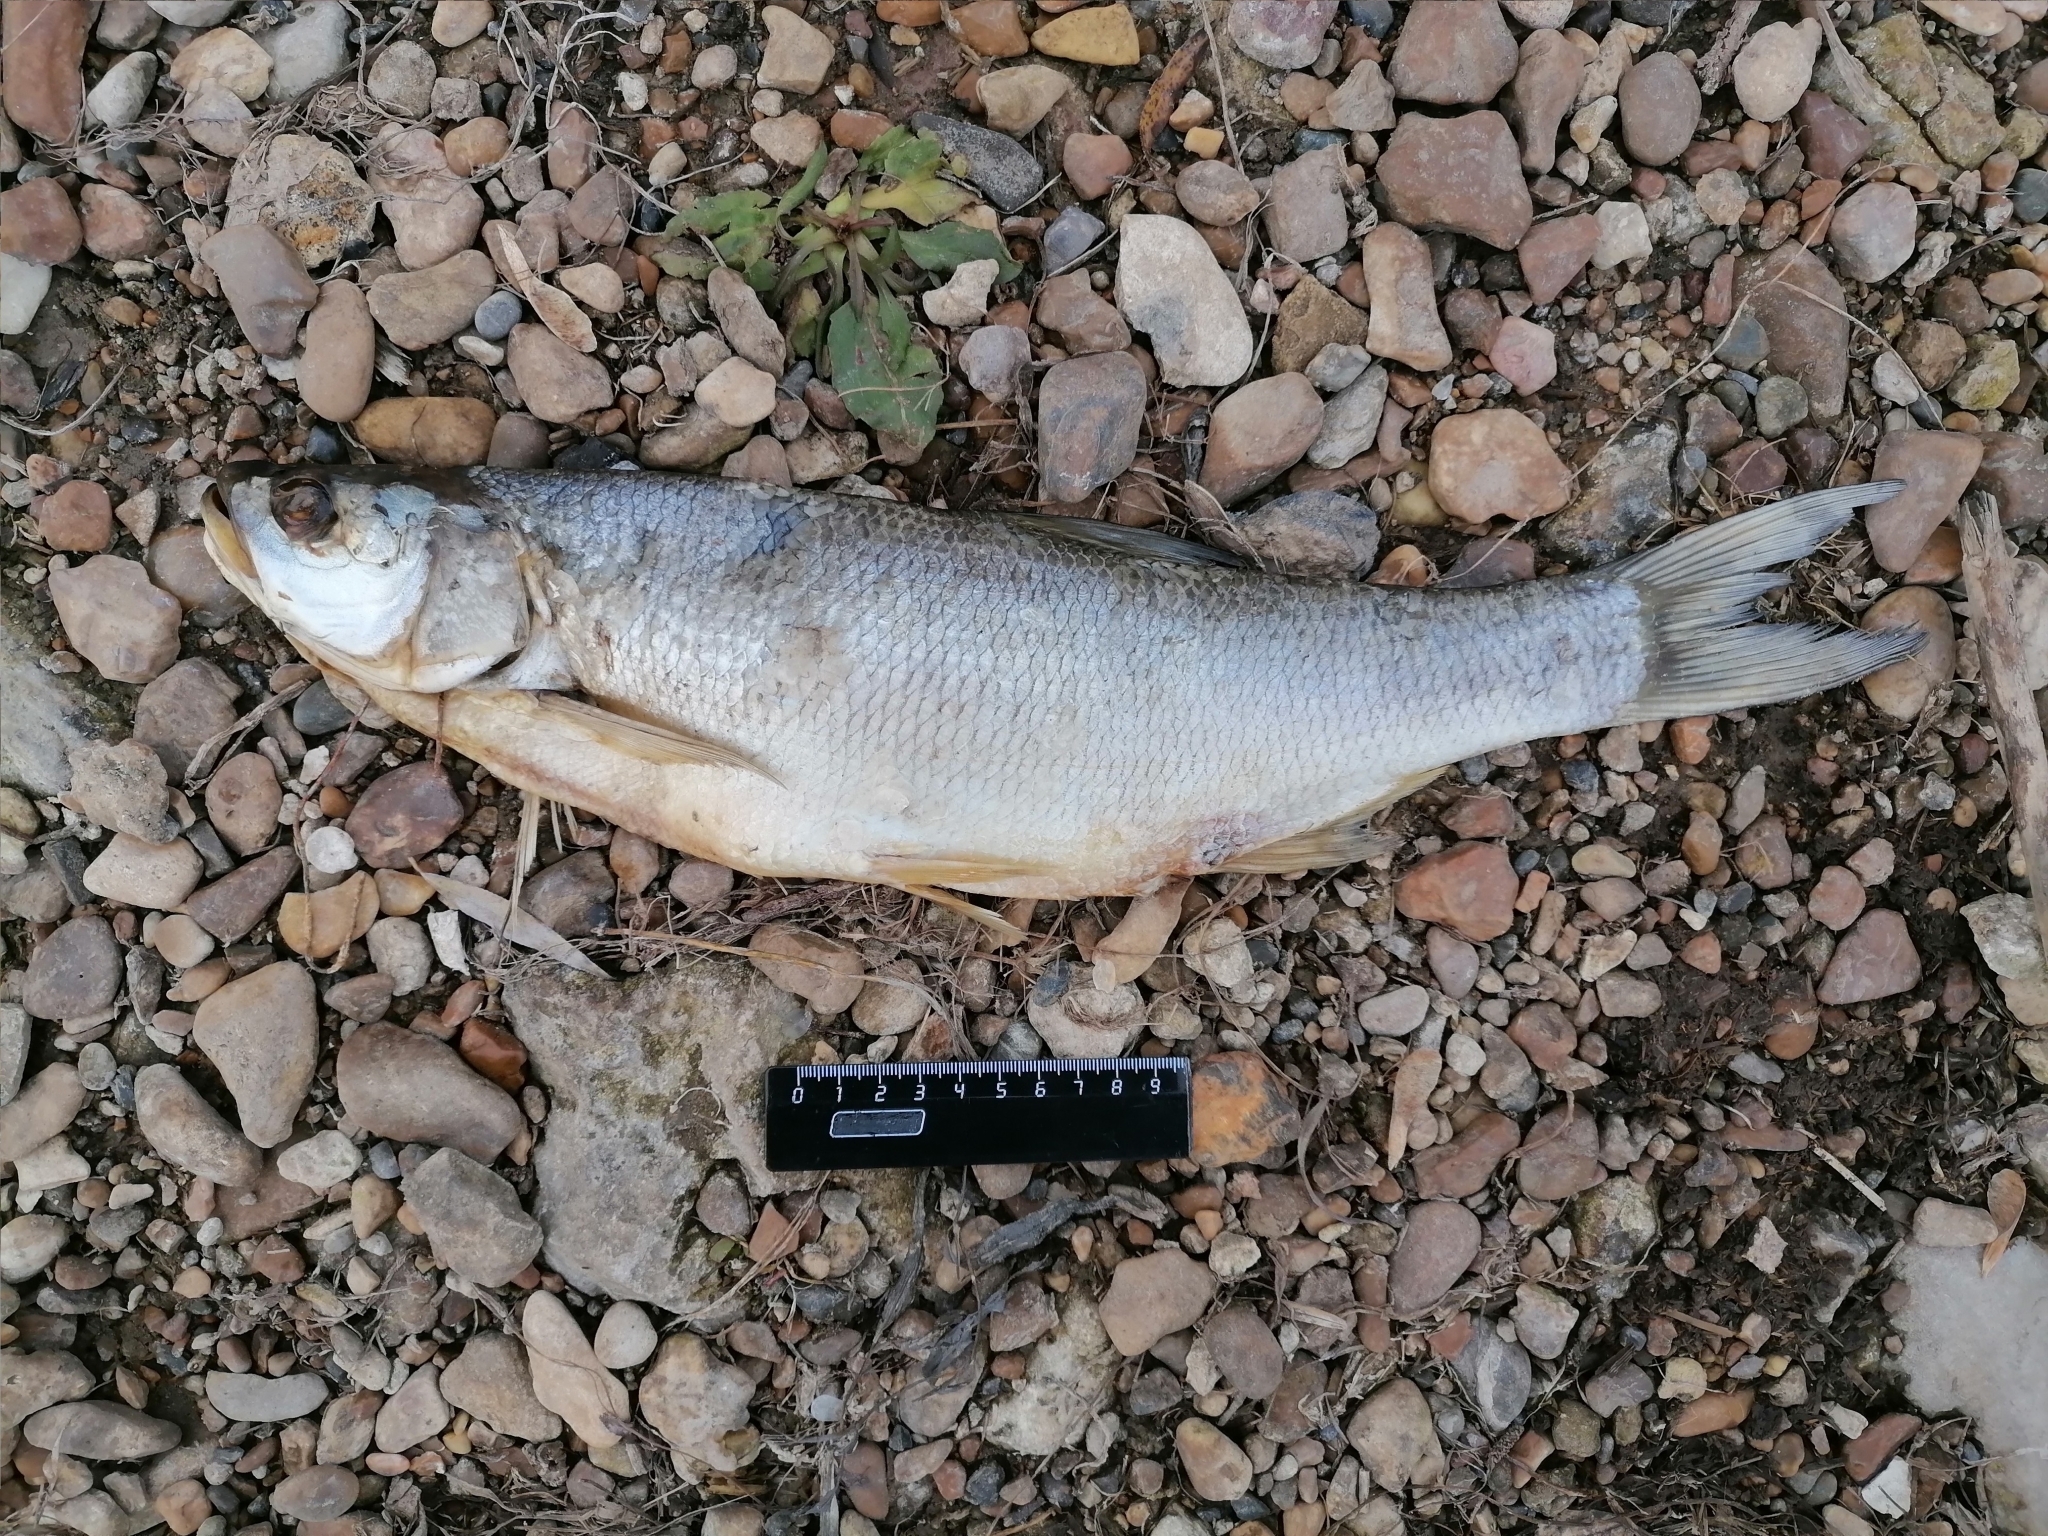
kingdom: Animalia
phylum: Chordata
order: Cypriniformes
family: Cyprinidae
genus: Leuciscus
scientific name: Leuciscus aspius
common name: Asp
